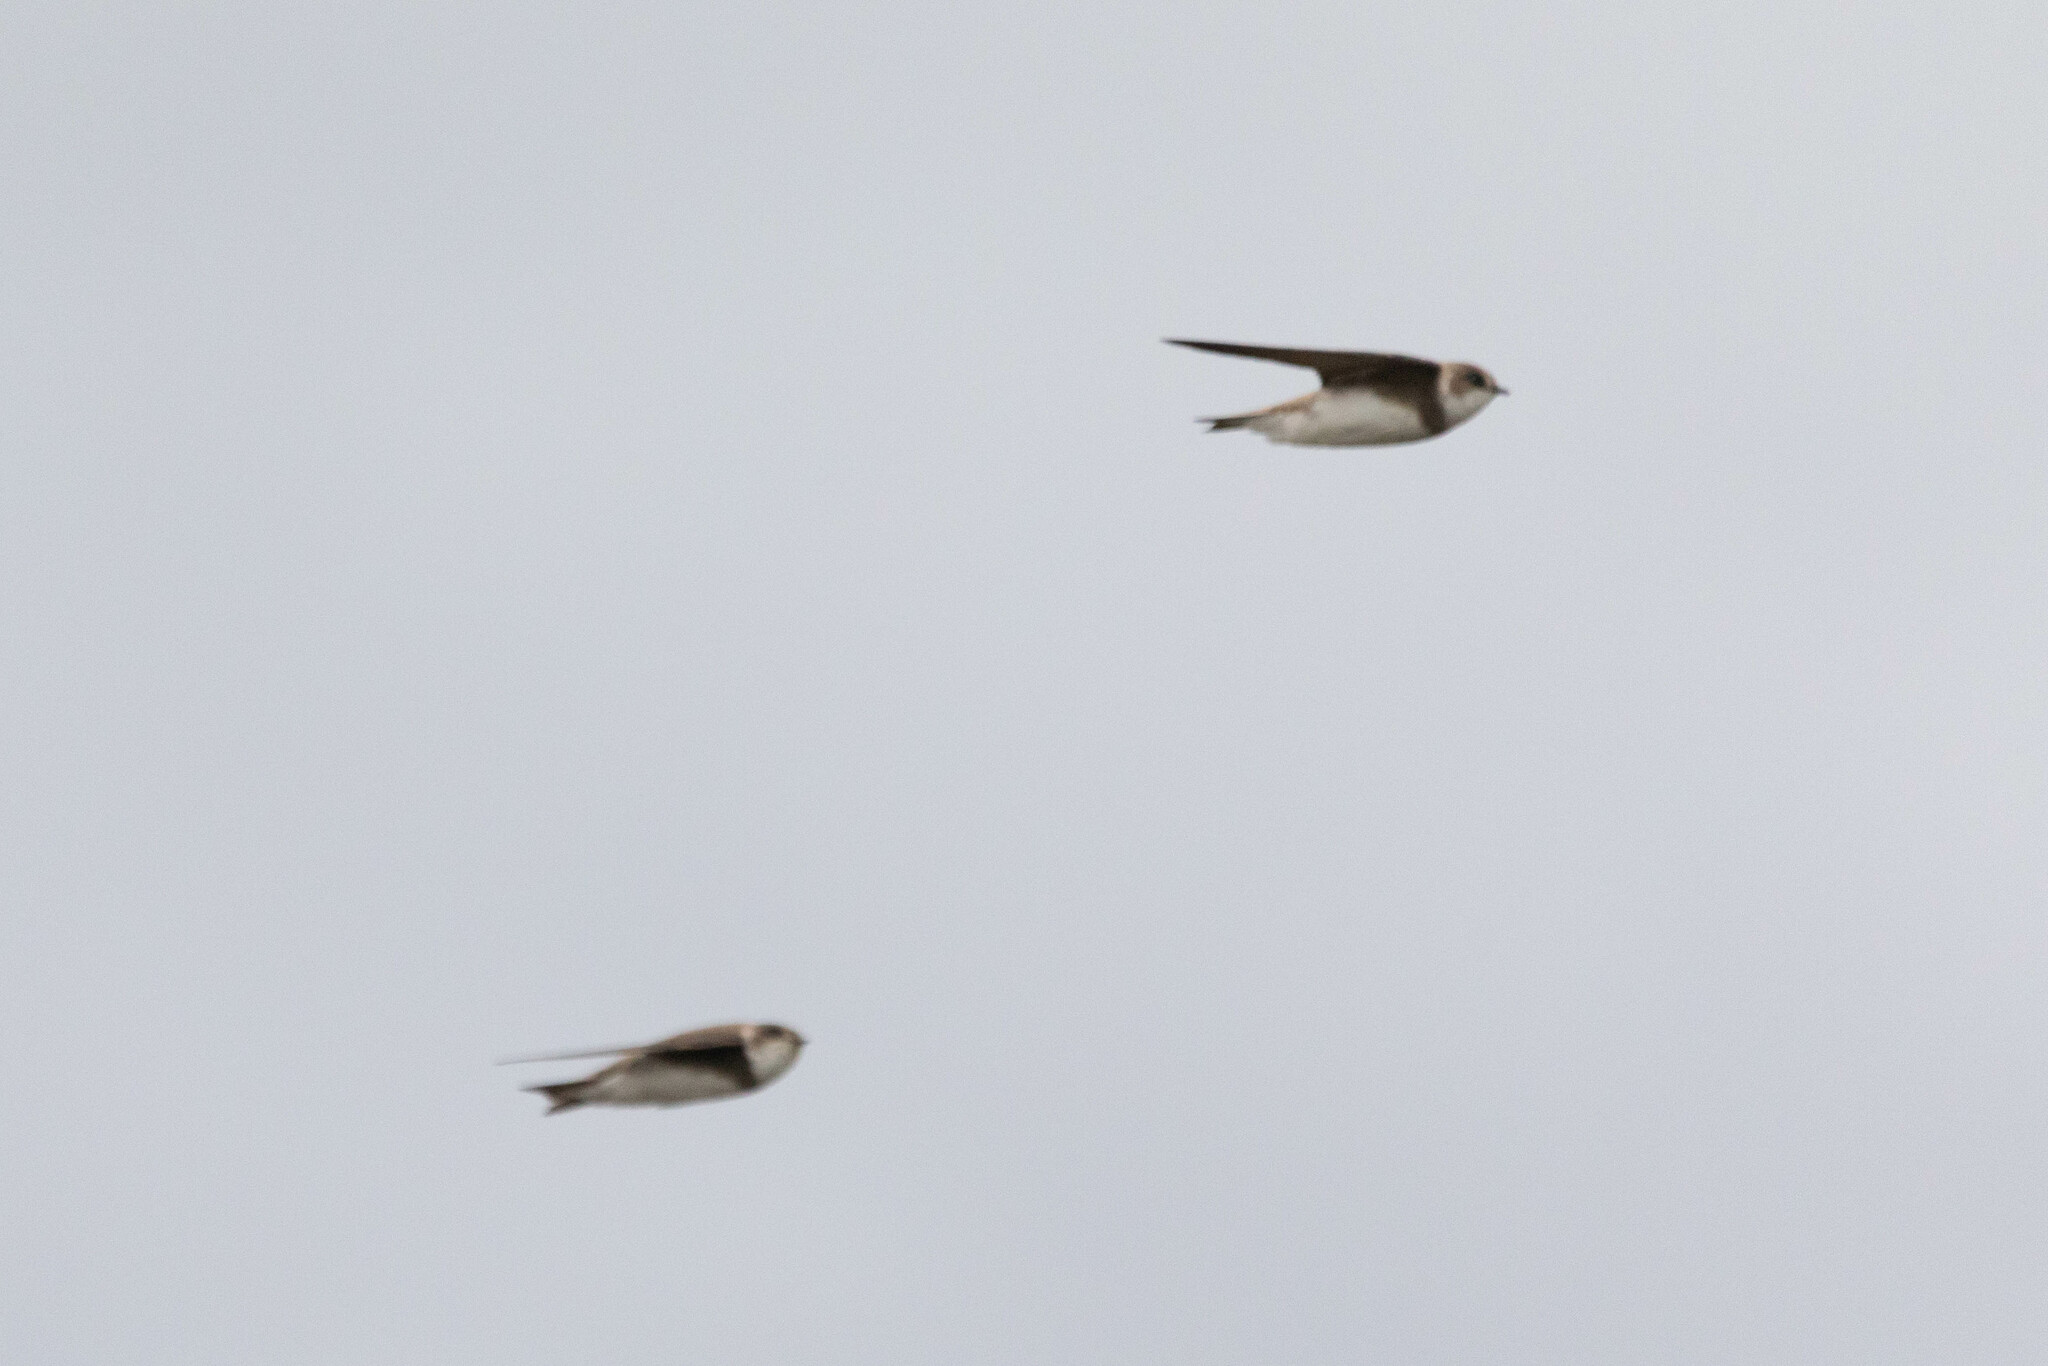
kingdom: Animalia
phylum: Chordata
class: Aves
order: Passeriformes
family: Hirundinidae
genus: Riparia
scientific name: Riparia riparia
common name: Sand martin
